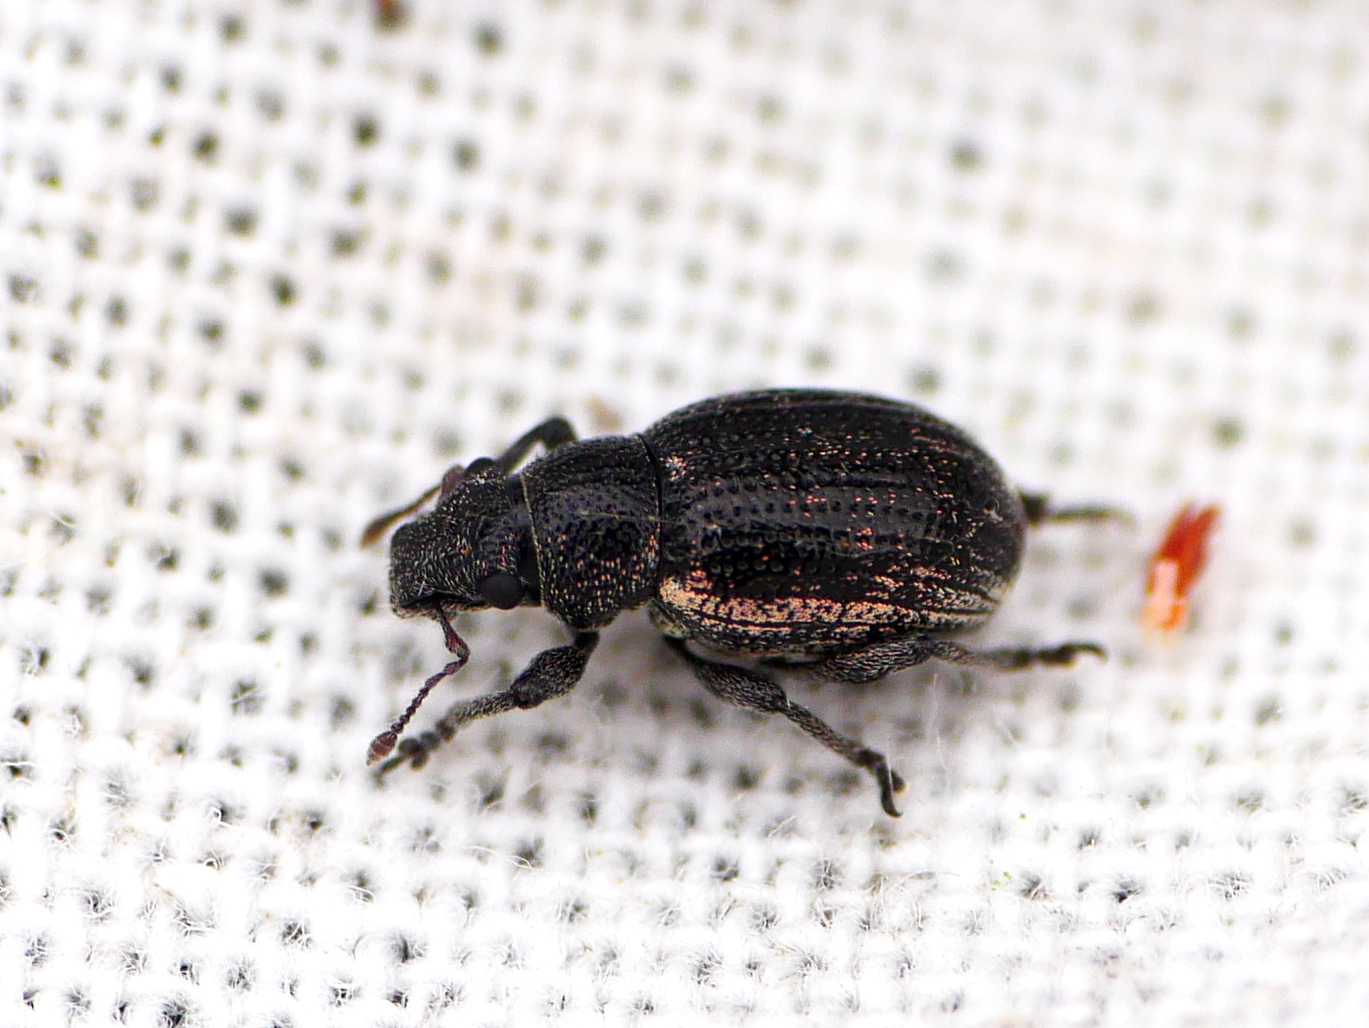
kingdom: Animalia
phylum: Arthropoda
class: Insecta
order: Coleoptera
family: Curculionidae
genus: Strophosoma
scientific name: Strophosoma sus
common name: Heather weevil
